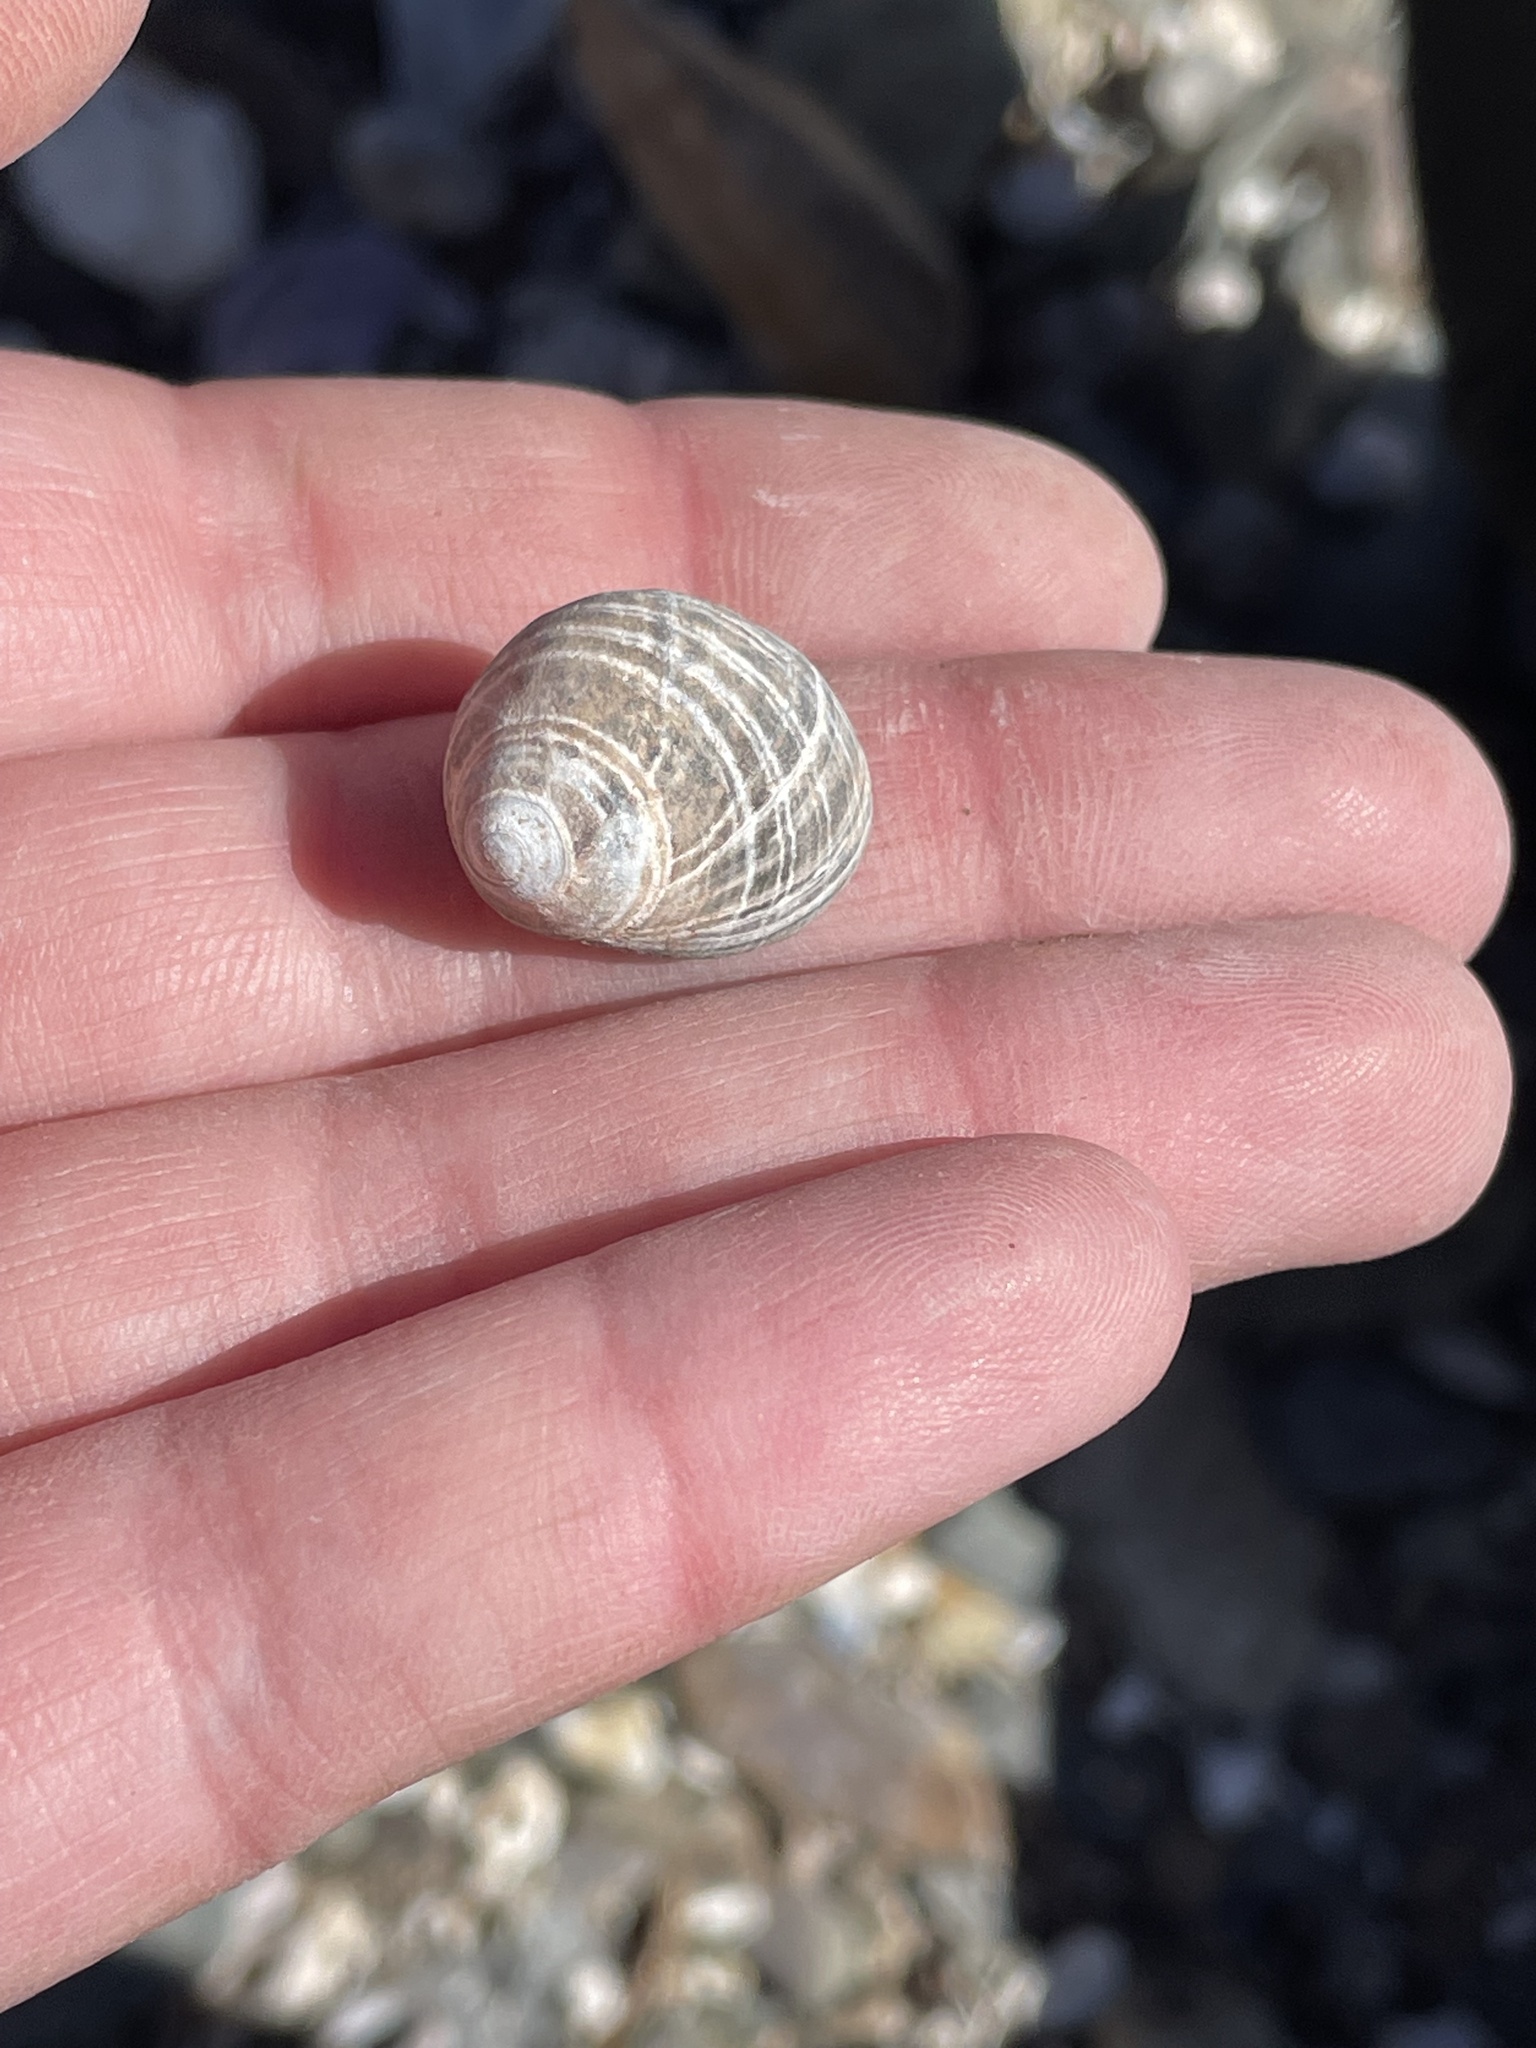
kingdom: Animalia
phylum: Mollusca
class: Gastropoda
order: Littorinimorpha
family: Littorinidae
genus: Littorina
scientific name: Littorina littorea
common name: Common periwinkle
